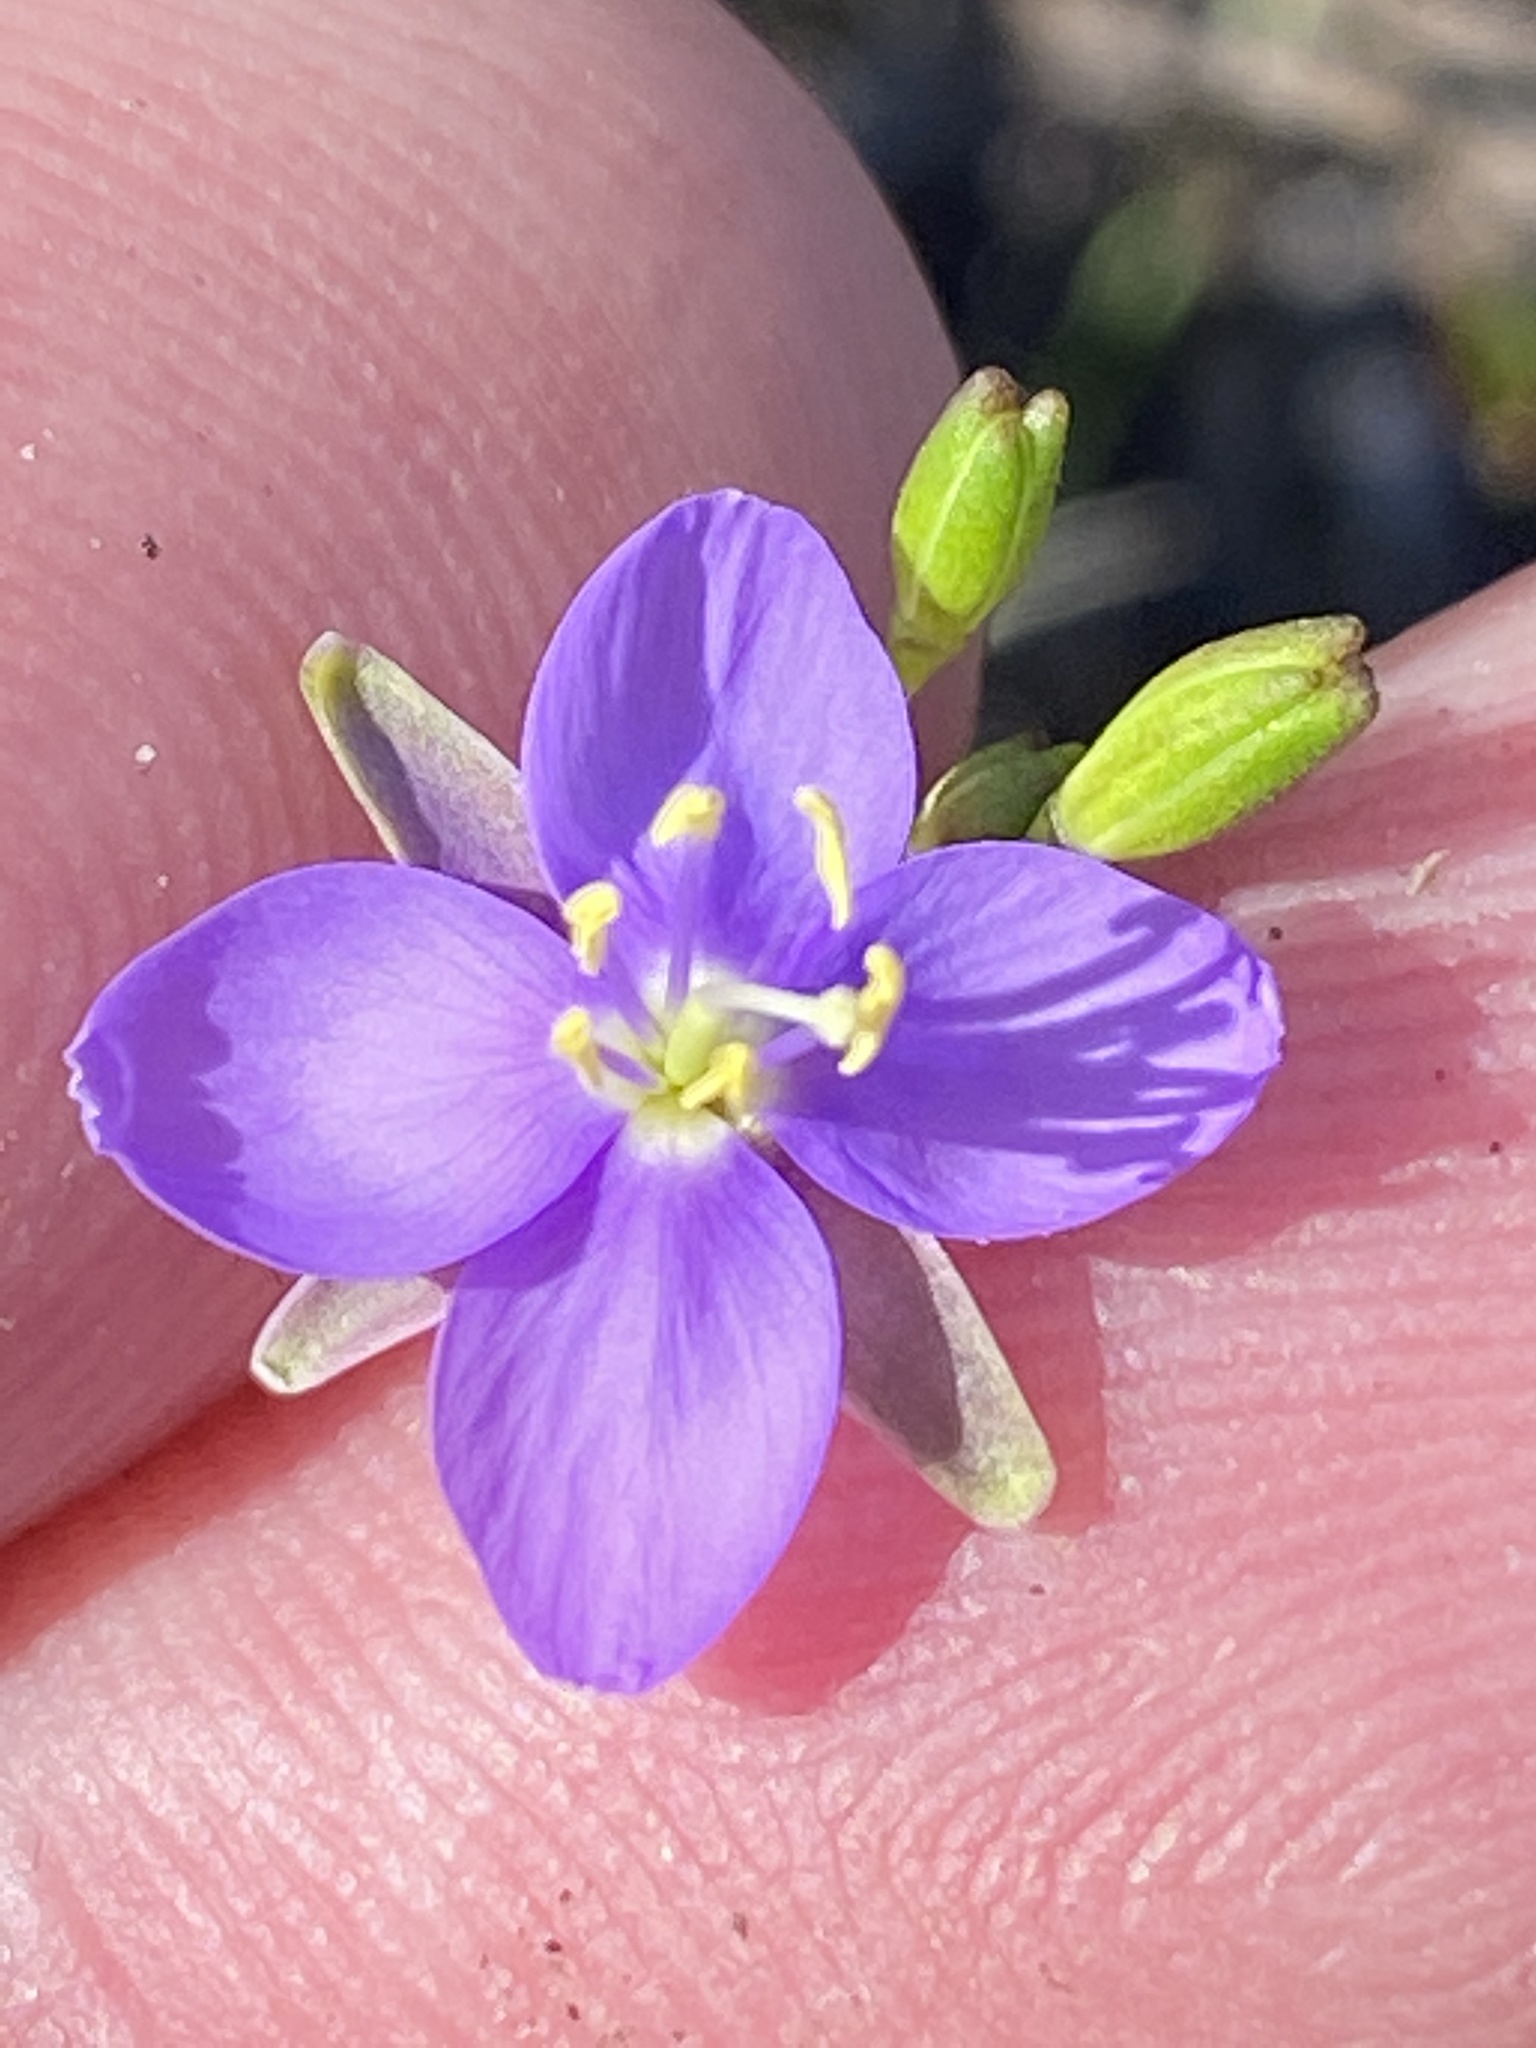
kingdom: Plantae
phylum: Tracheophyta
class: Magnoliopsida
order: Brassicales
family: Brassicaceae
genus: Heliophila
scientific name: Heliophila subulata
